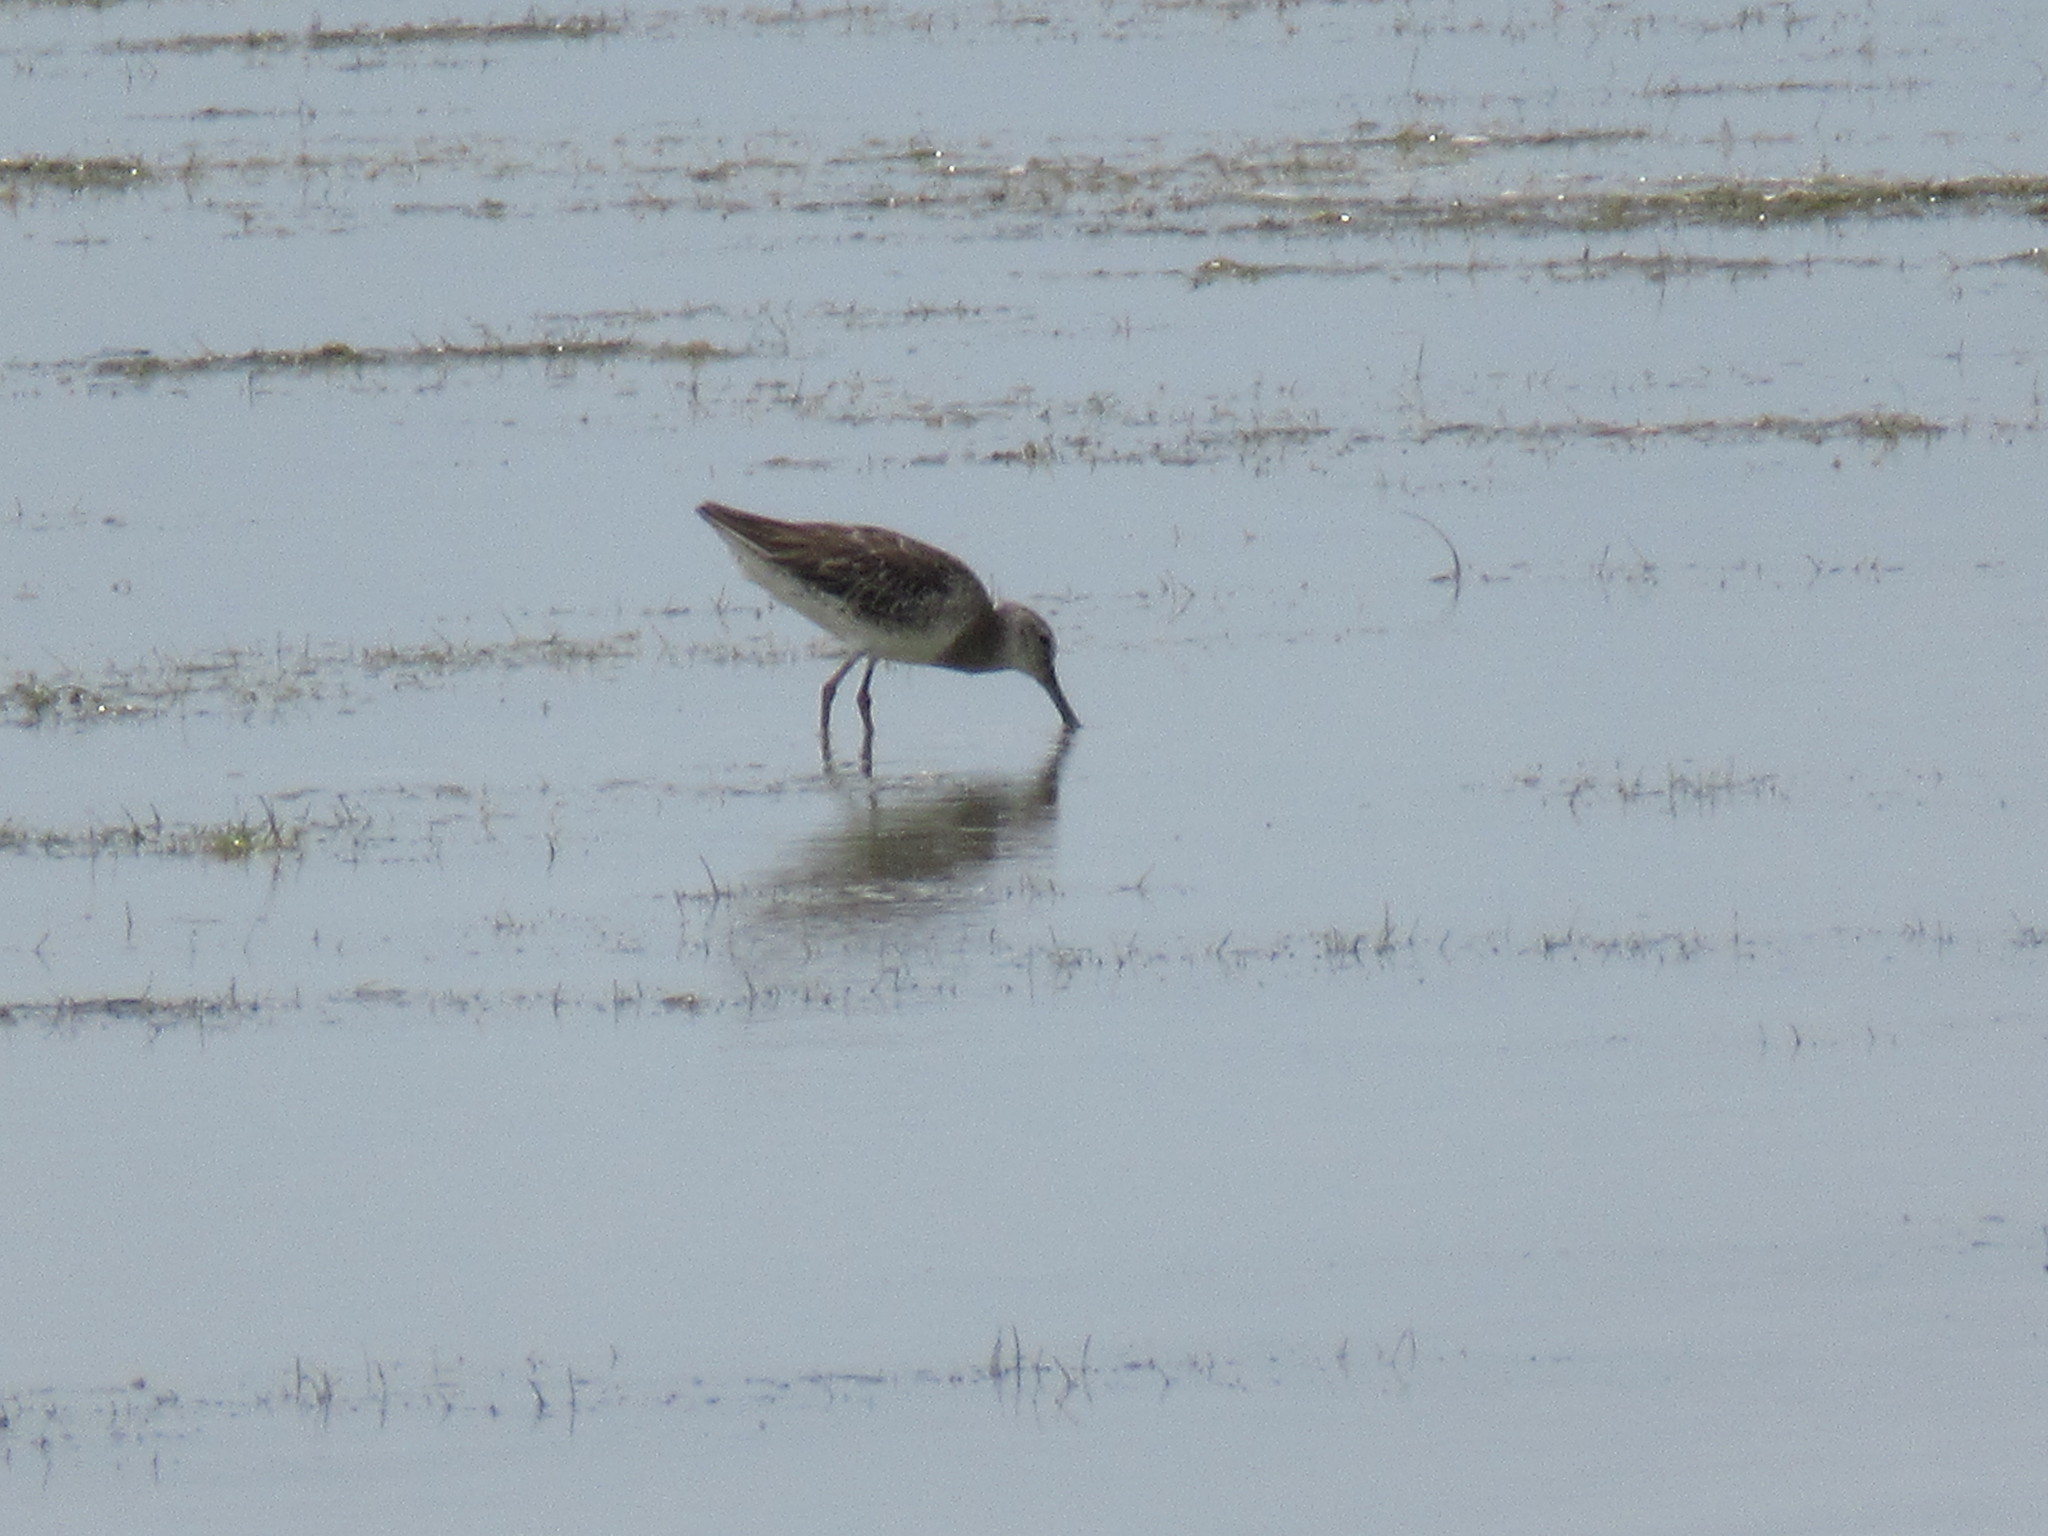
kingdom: Animalia
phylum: Chordata
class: Aves
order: Charadriiformes
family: Scolopacidae
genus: Limnodromus
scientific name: Limnodromus
